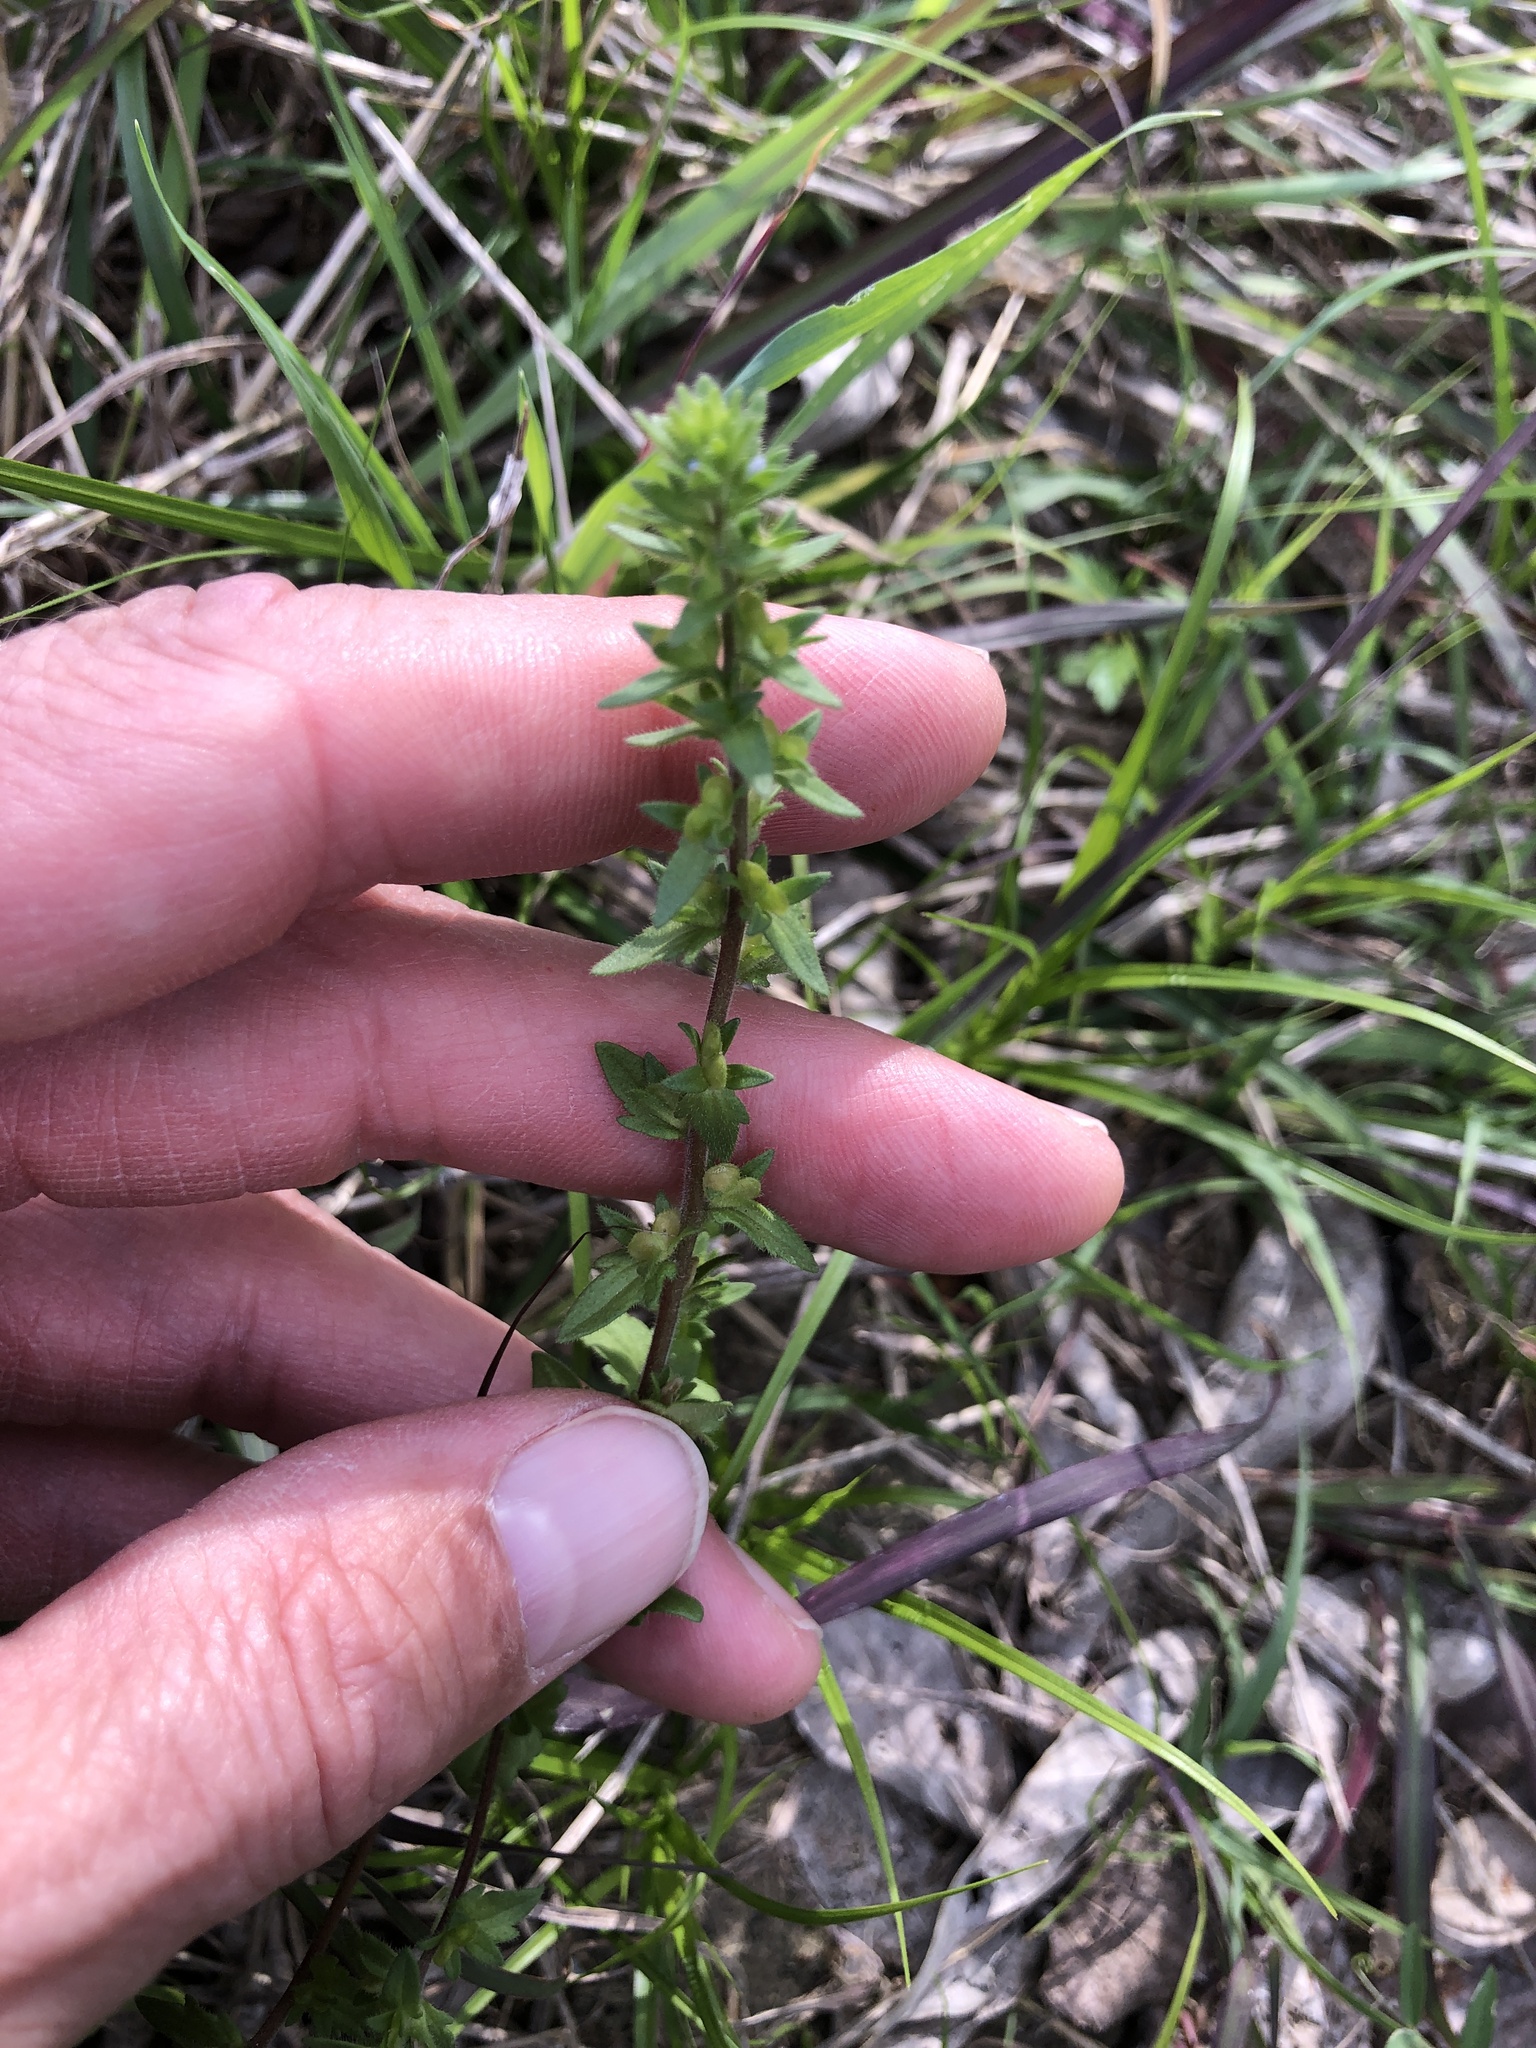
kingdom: Plantae
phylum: Tracheophyta
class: Magnoliopsida
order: Lamiales
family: Plantaginaceae
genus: Veronica
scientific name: Veronica arvensis
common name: Corn speedwell
